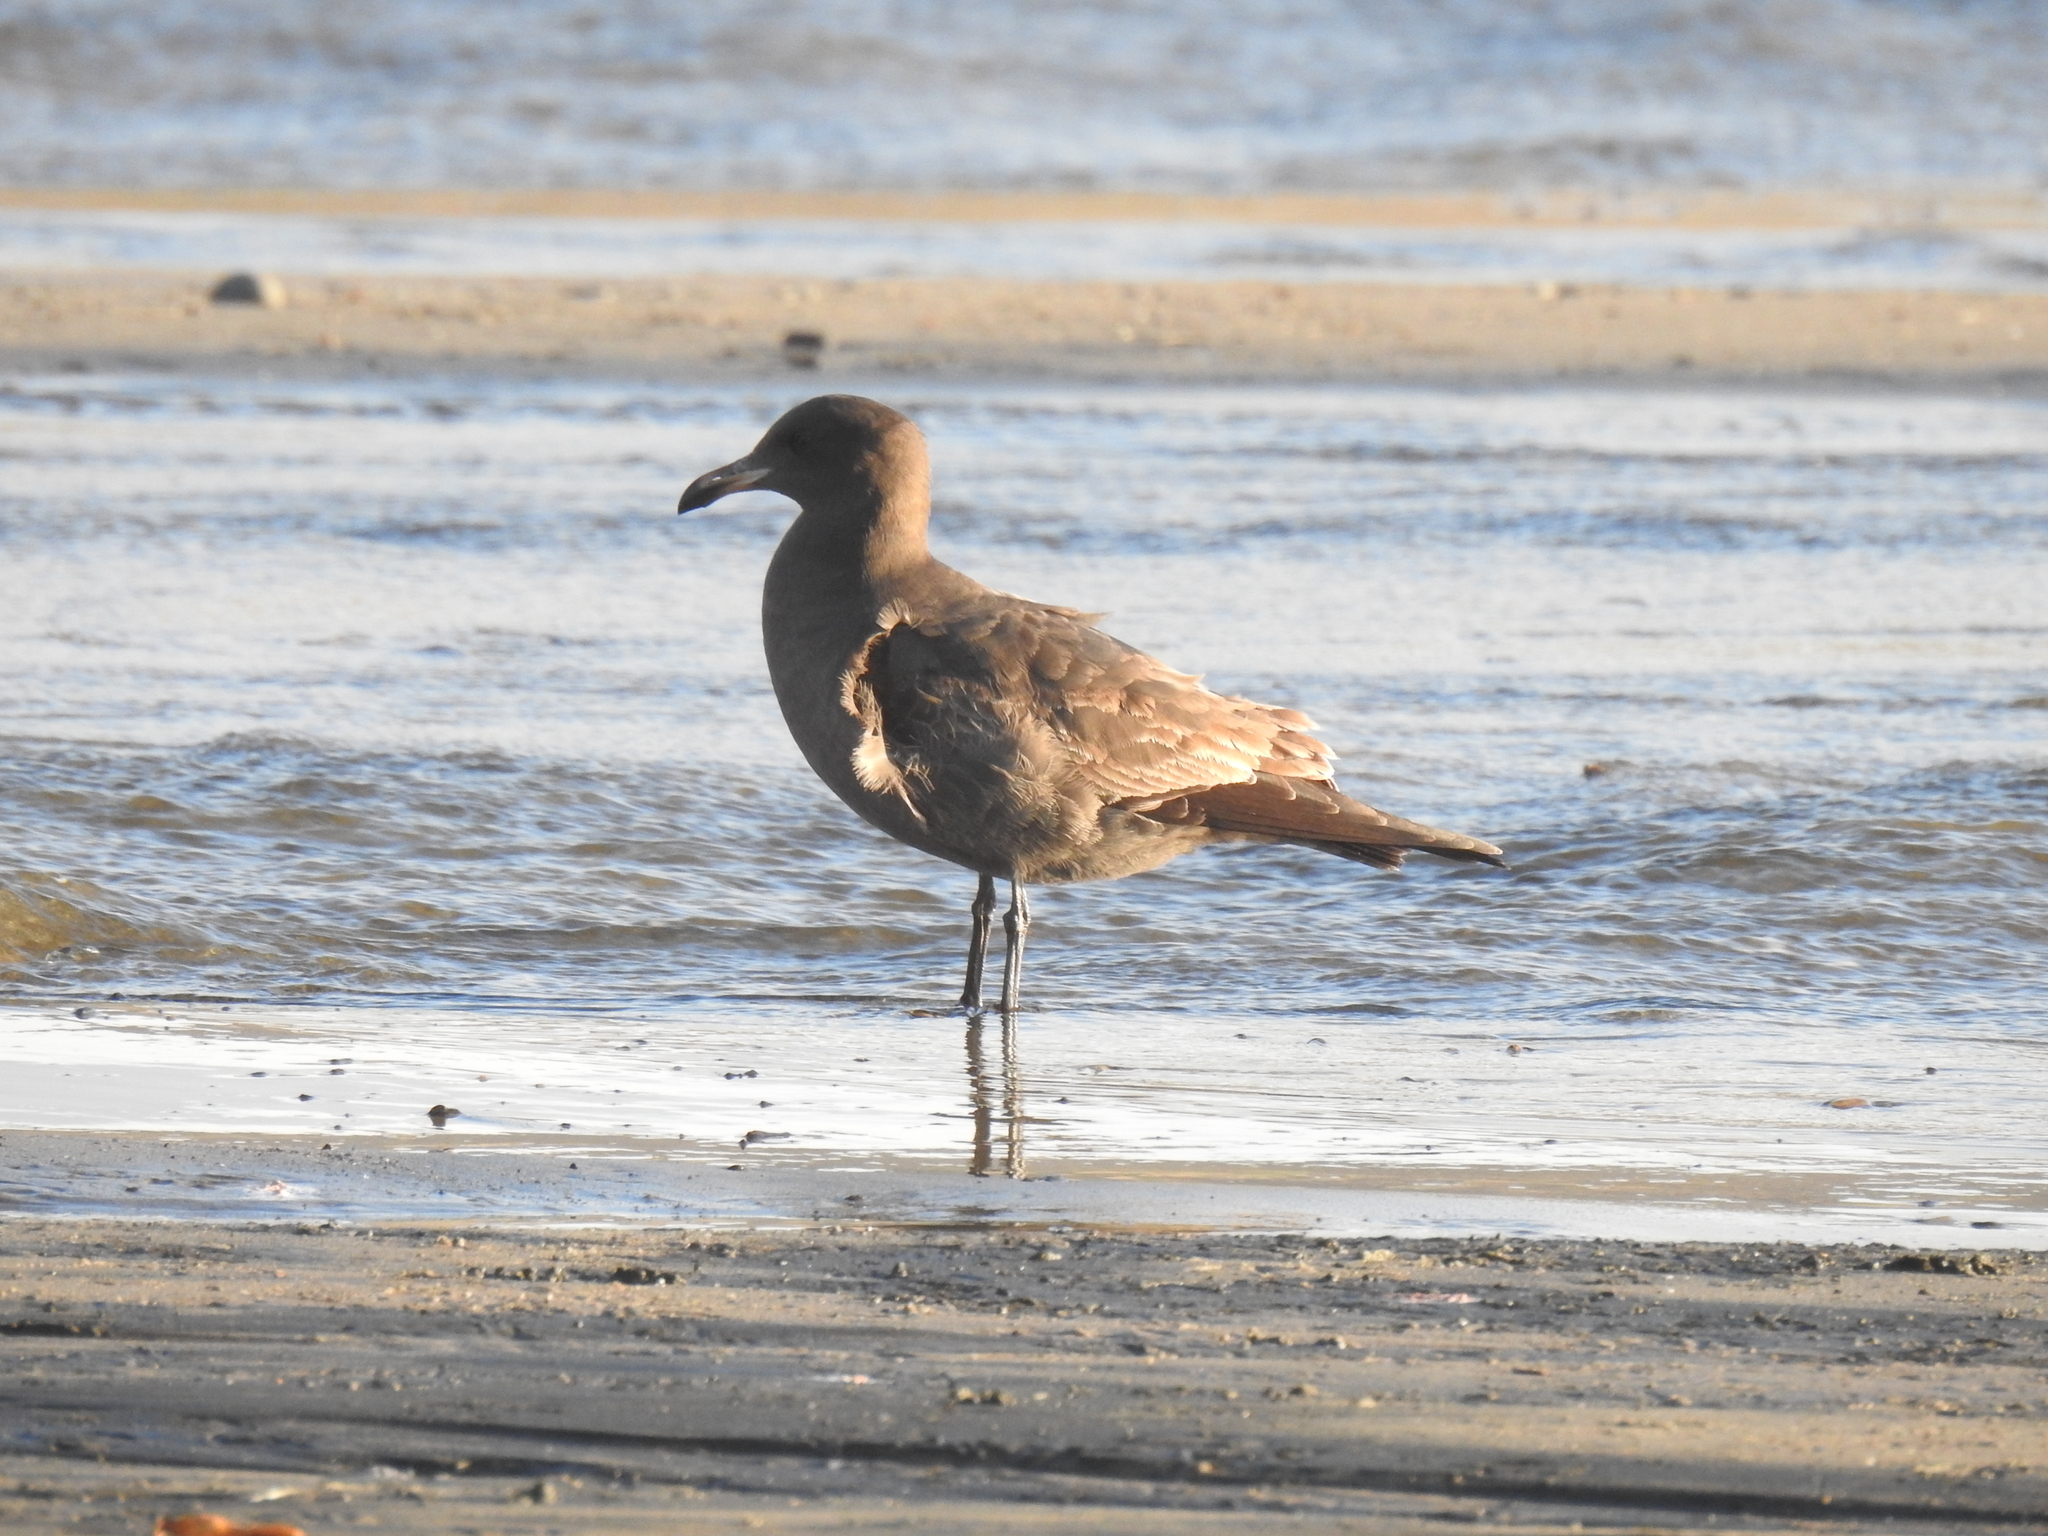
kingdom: Animalia
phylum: Chordata
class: Aves
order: Charadriiformes
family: Laridae
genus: Larus
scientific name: Larus heermanni
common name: Heermann's gull
